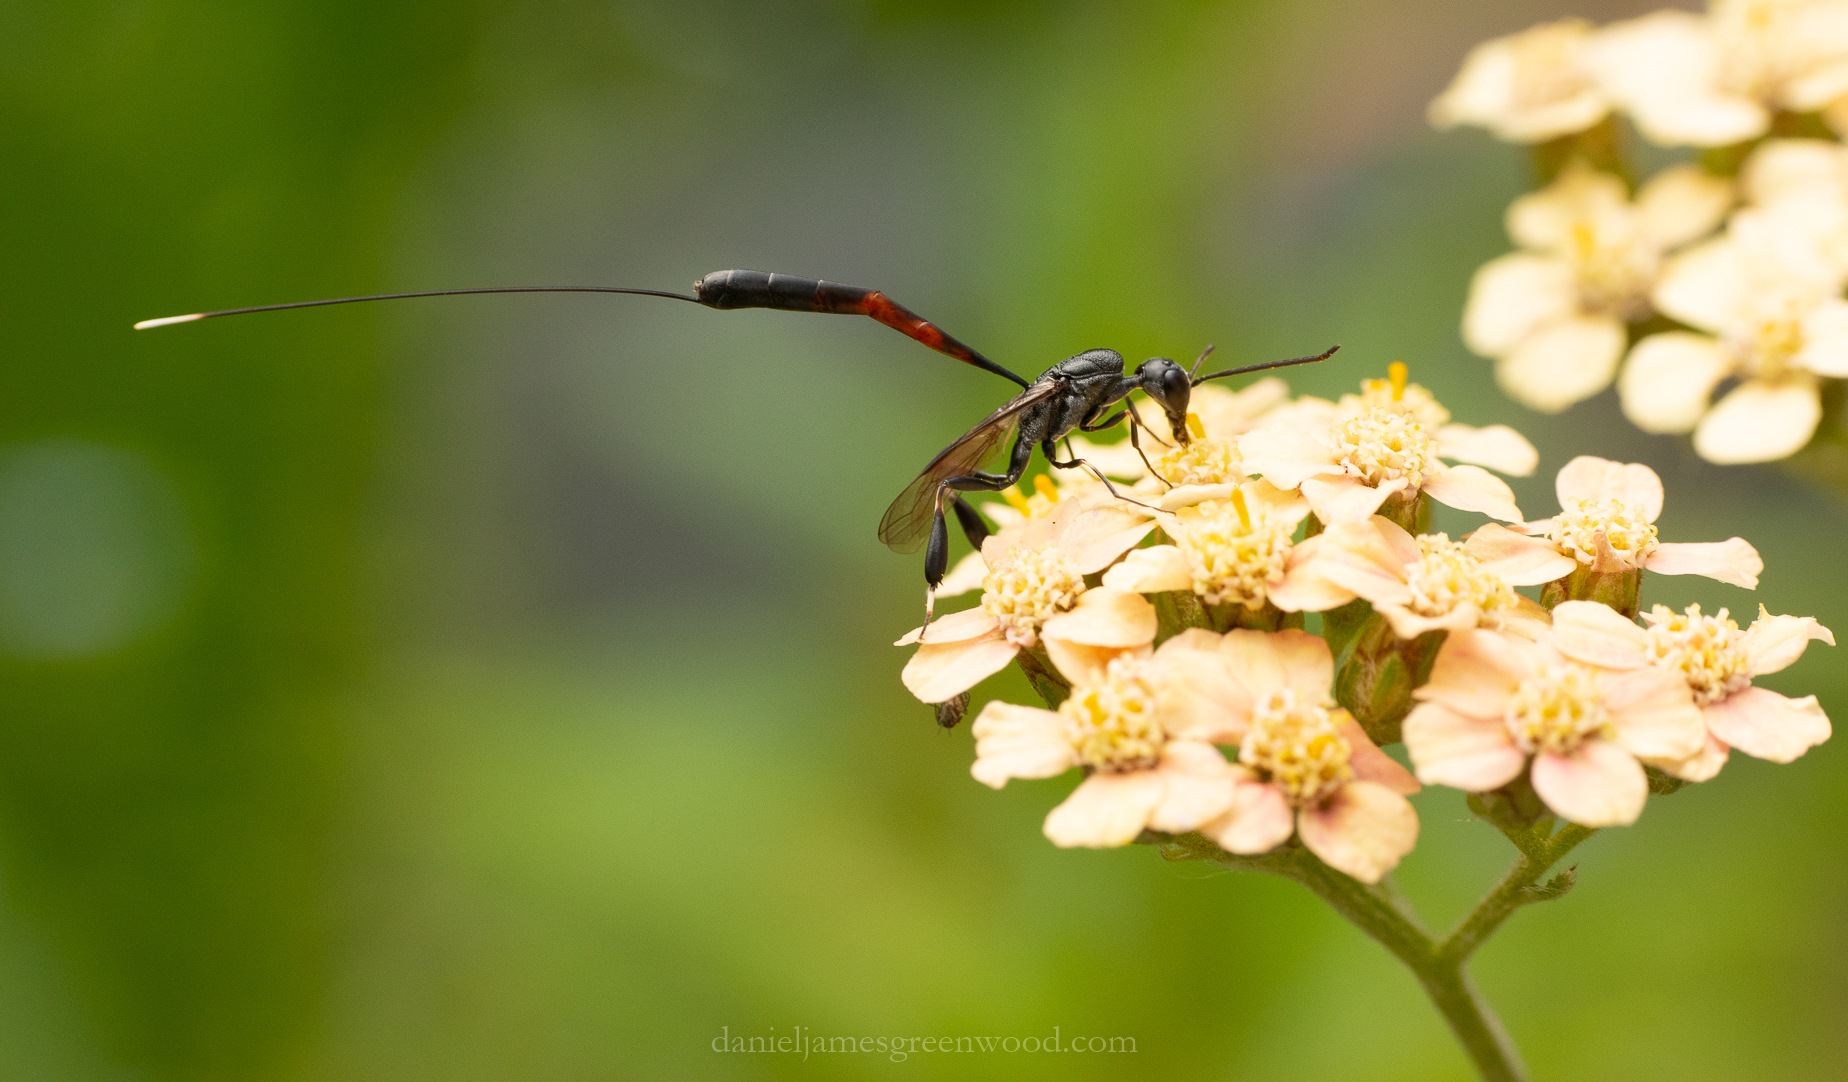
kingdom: Animalia
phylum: Arthropoda
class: Insecta
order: Hymenoptera
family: Gasteruptiidae
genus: Gasteruption
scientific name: Gasteruption jaculator
